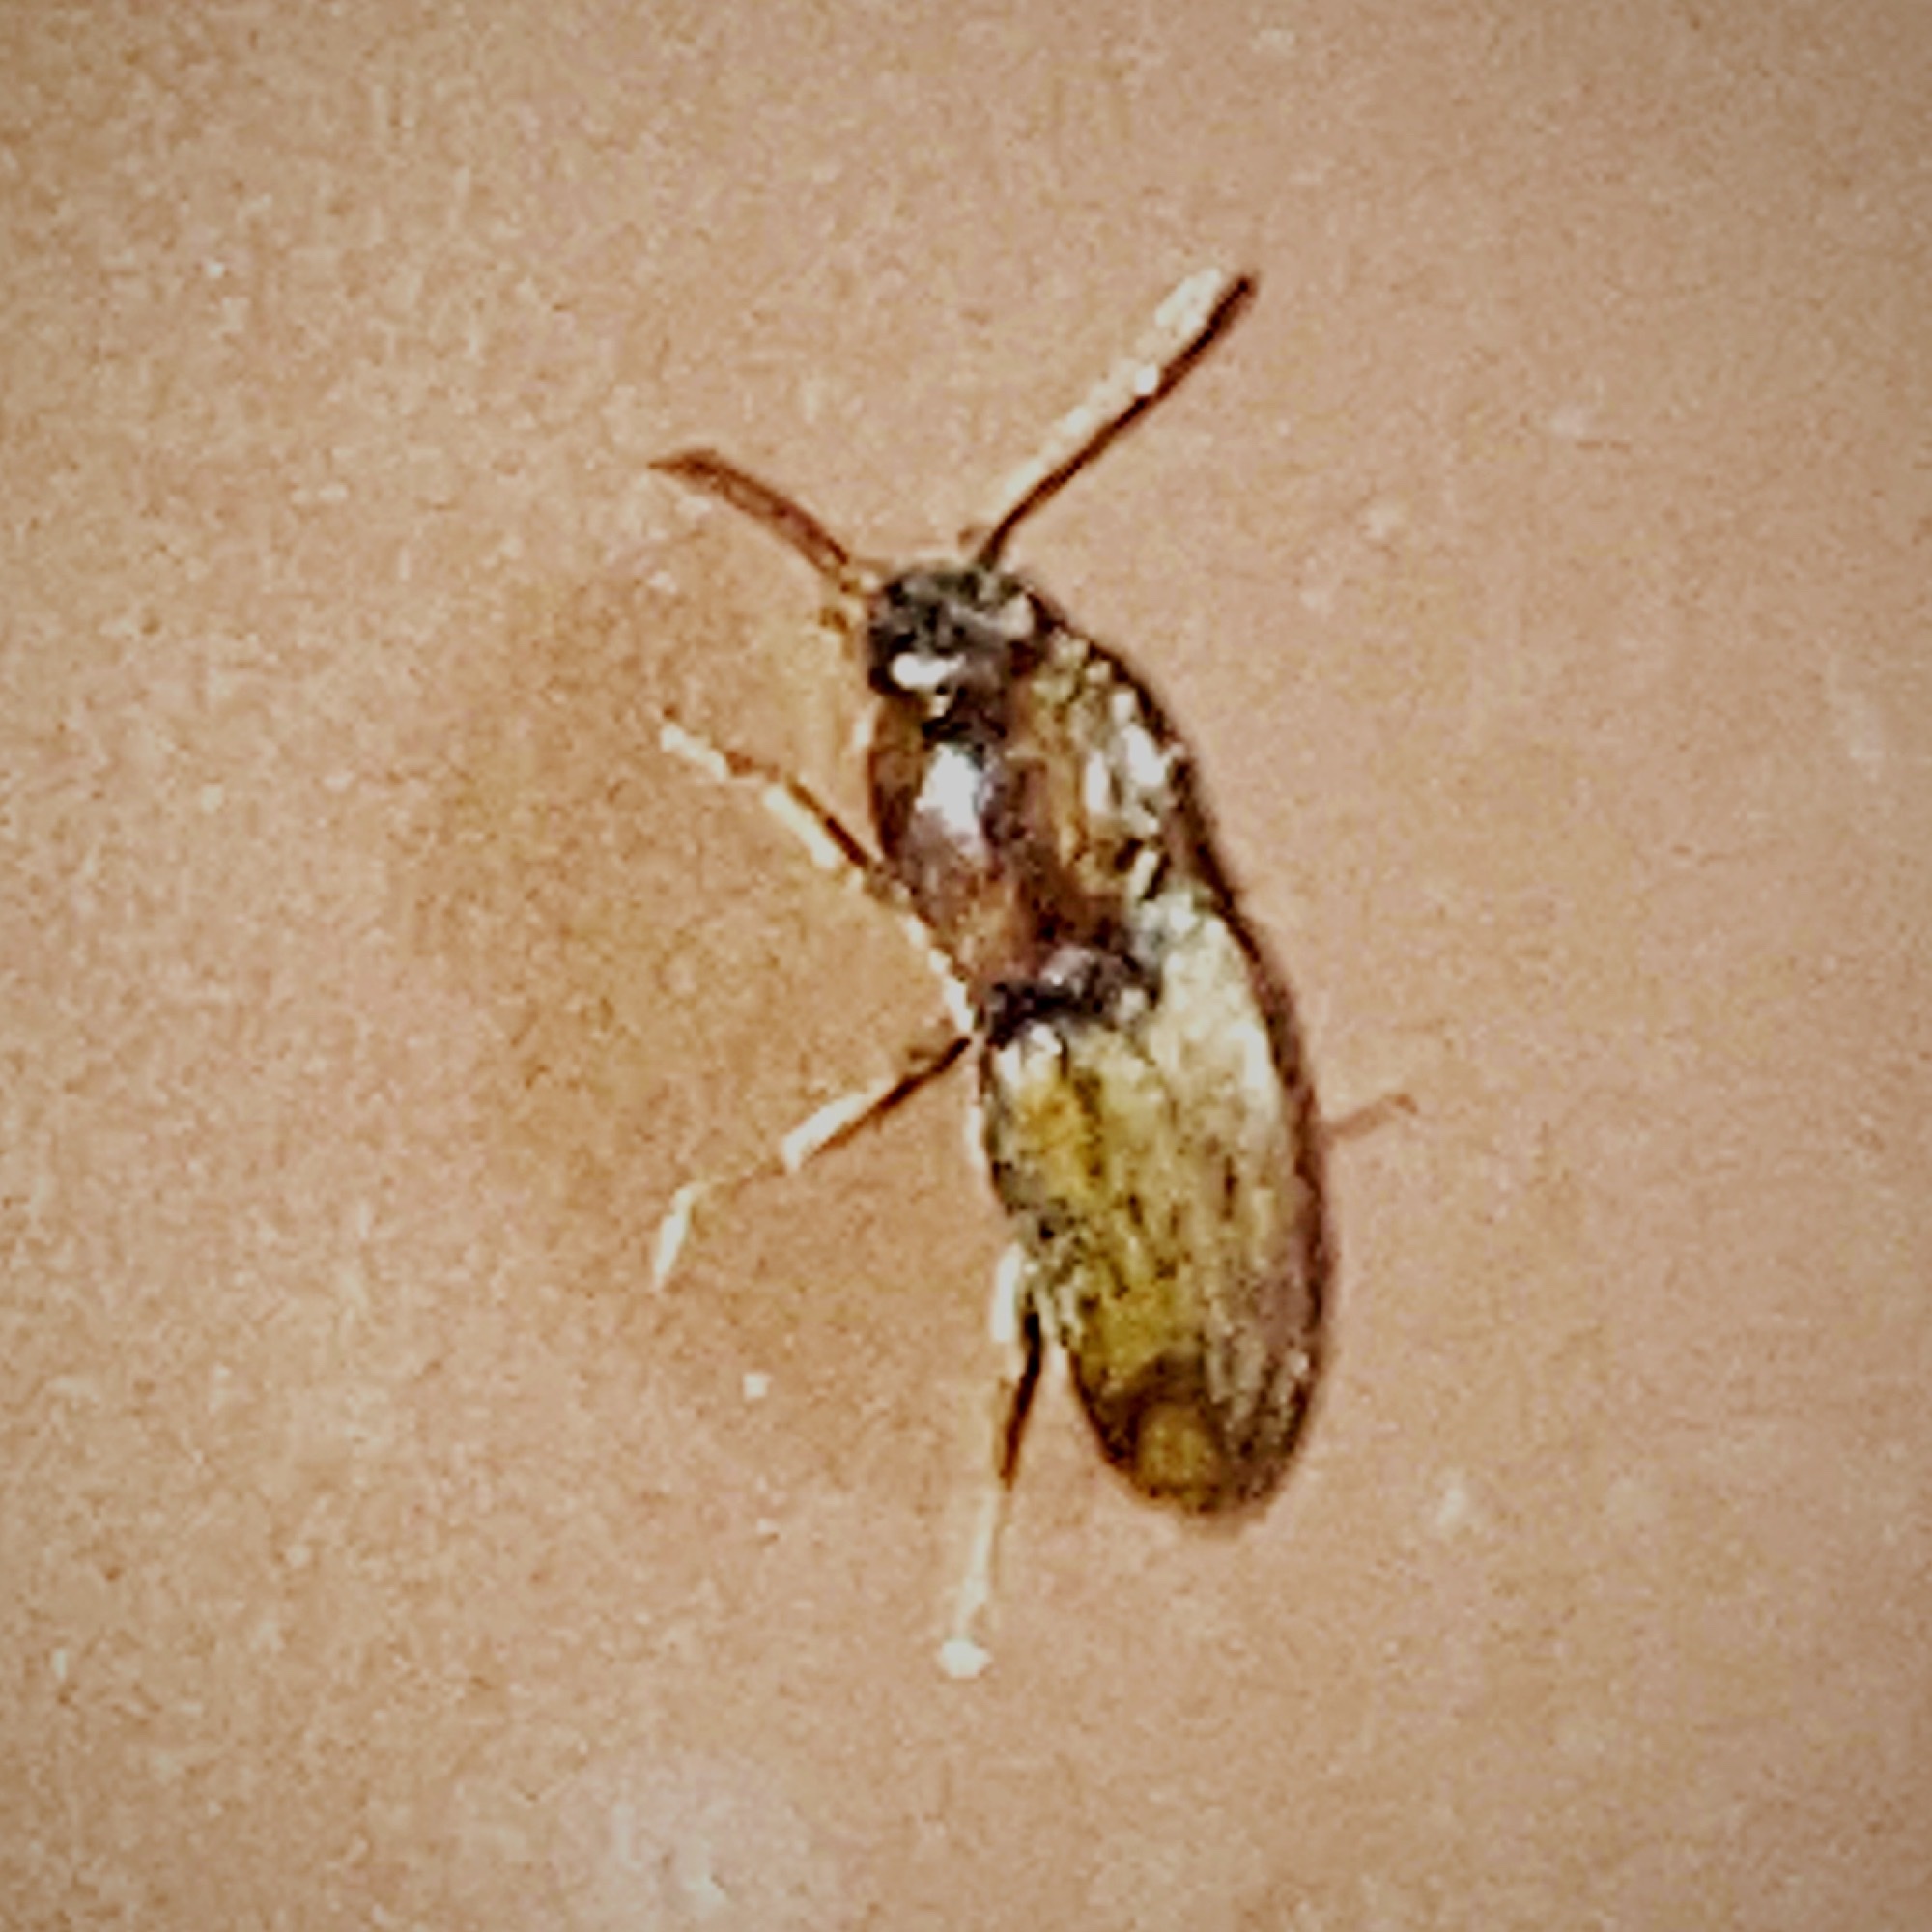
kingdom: Animalia
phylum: Arthropoda
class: Insecta
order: Coleoptera
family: Elateridae
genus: Monocrepidius
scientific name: Monocrepidius bellus
